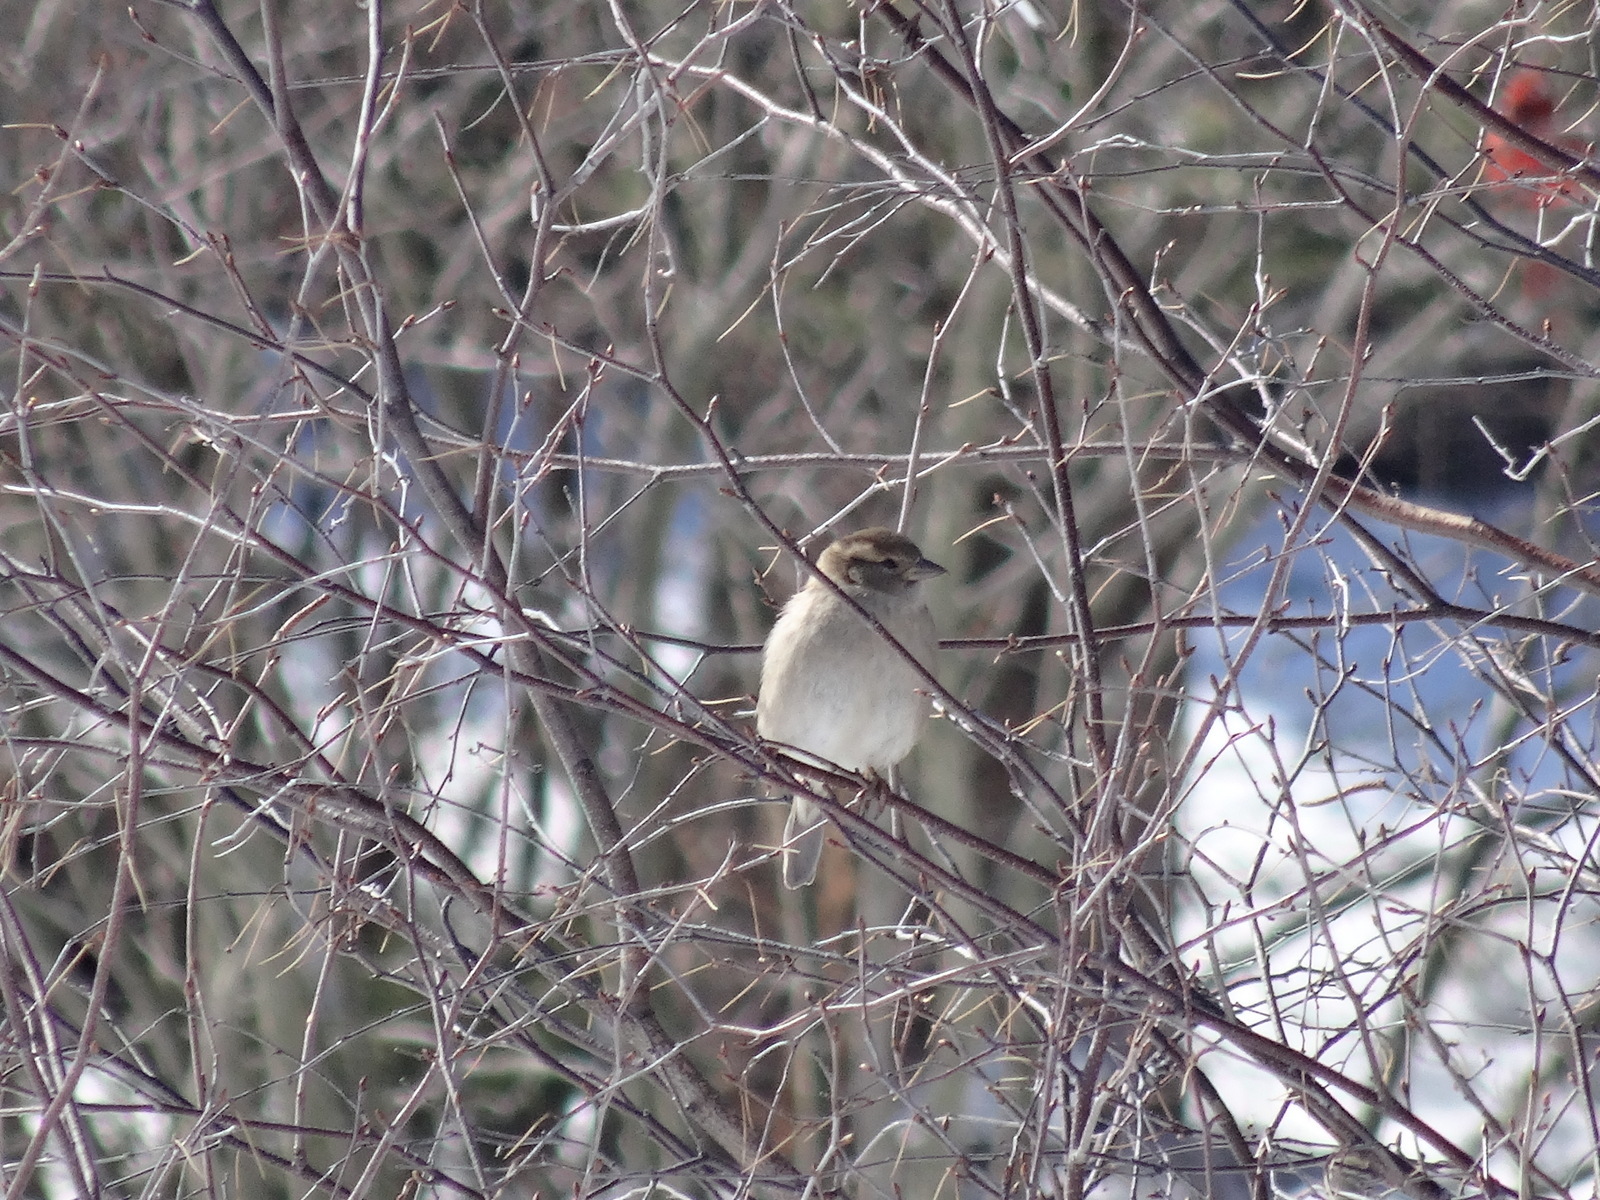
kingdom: Animalia
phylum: Chordata
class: Aves
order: Passeriformes
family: Passeridae
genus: Passer
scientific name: Passer domesticus
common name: House sparrow
